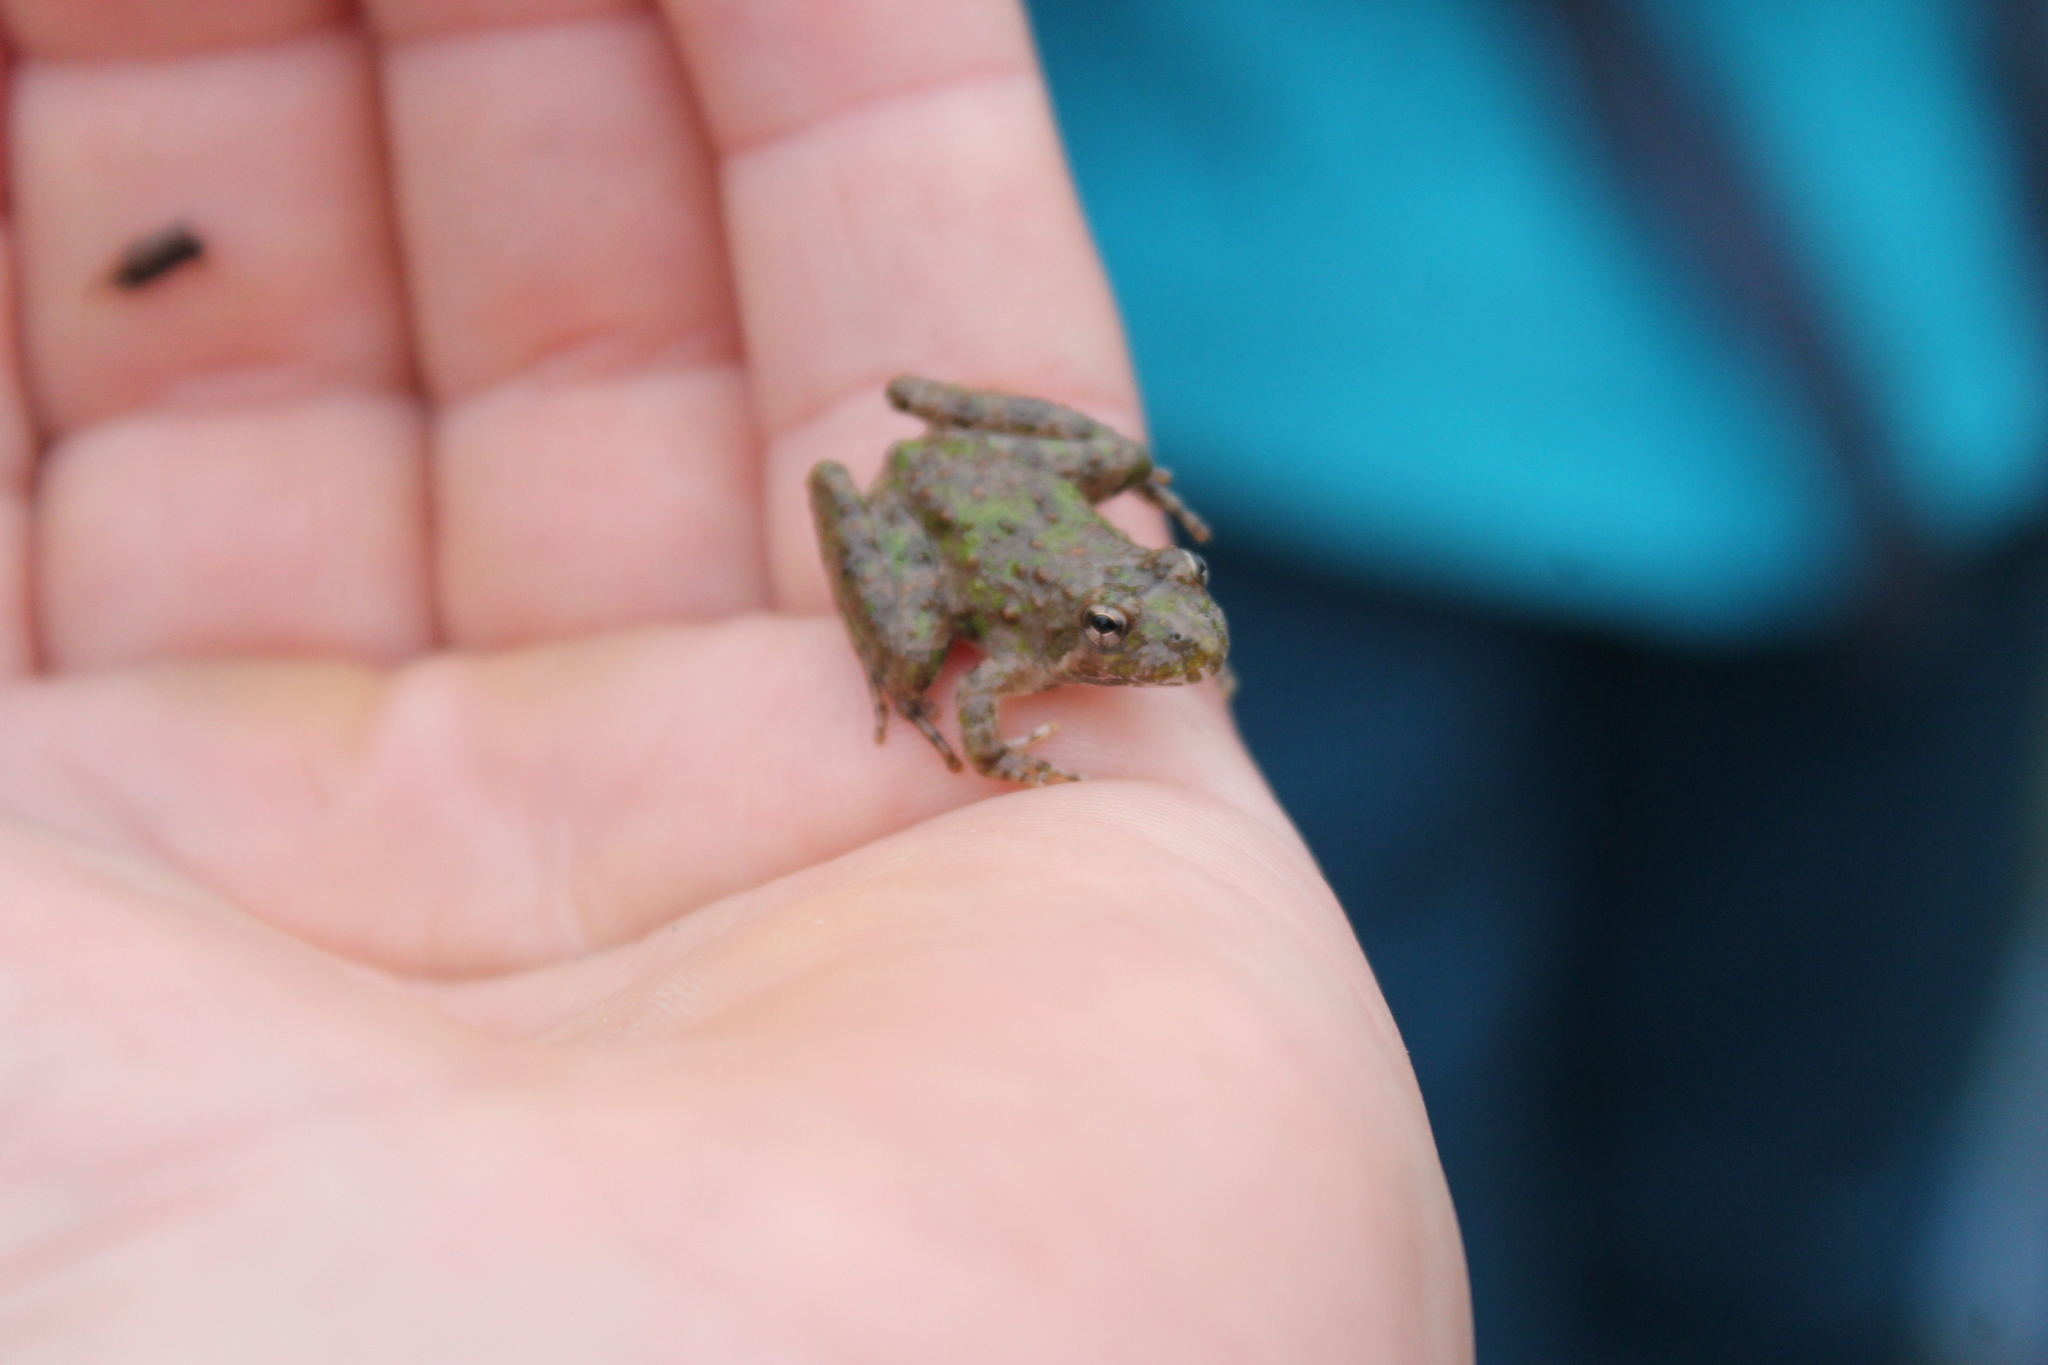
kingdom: Animalia
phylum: Chordata
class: Amphibia
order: Anura
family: Hylidae
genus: Acris
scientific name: Acris blanchardi
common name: Blanchard's cricket frog
